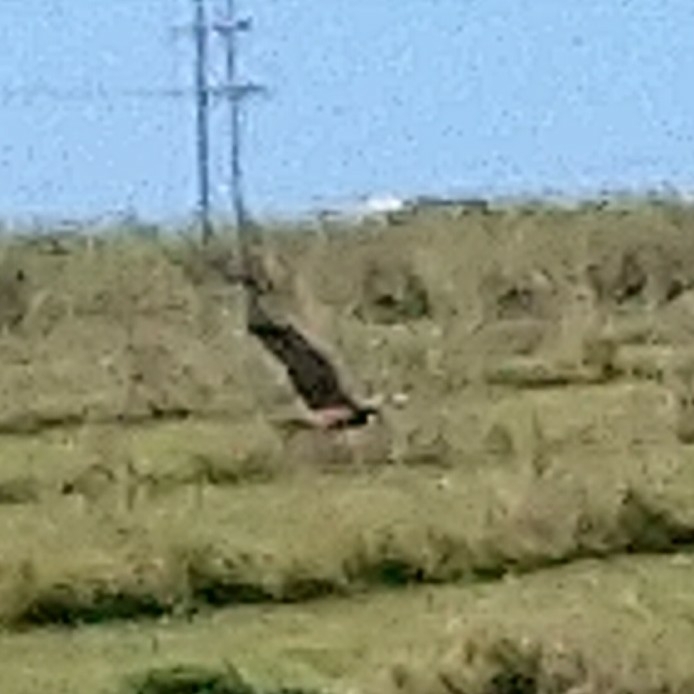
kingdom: Animalia
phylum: Chordata
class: Aves
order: Accipitriformes
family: Accipitridae
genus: Circus
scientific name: Circus ranivorus
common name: African marsh-harrier
